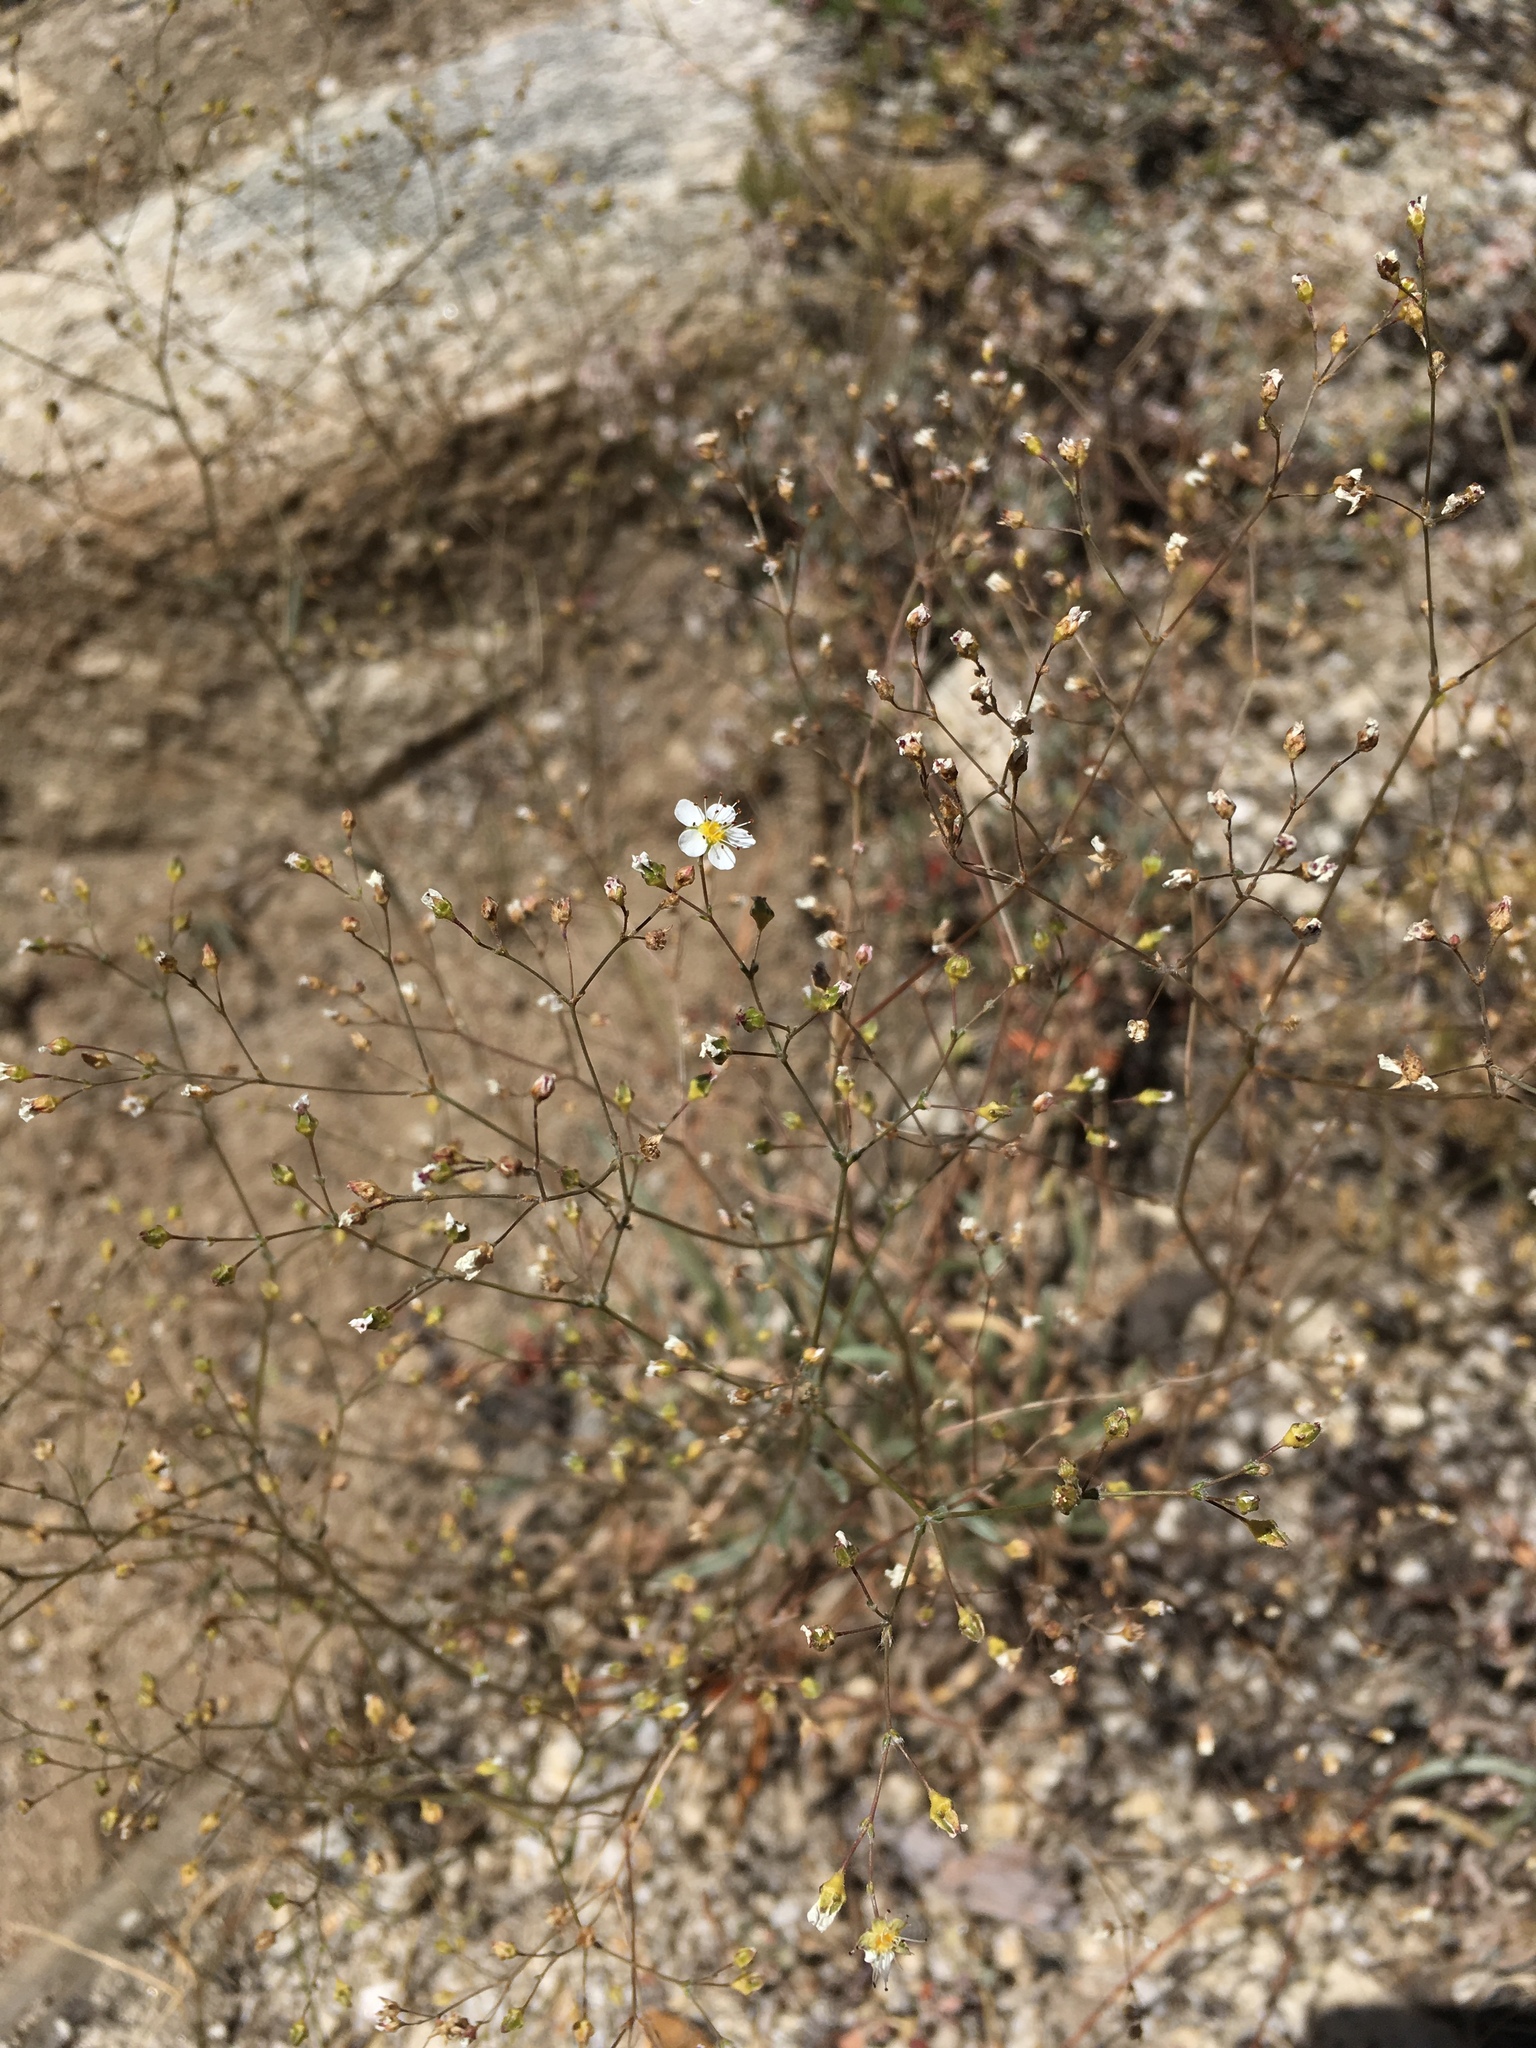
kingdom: Plantae
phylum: Tracheophyta
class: Magnoliopsida
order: Rosales
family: Rosaceae
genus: Potentilla
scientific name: Potentilla santolinoides
